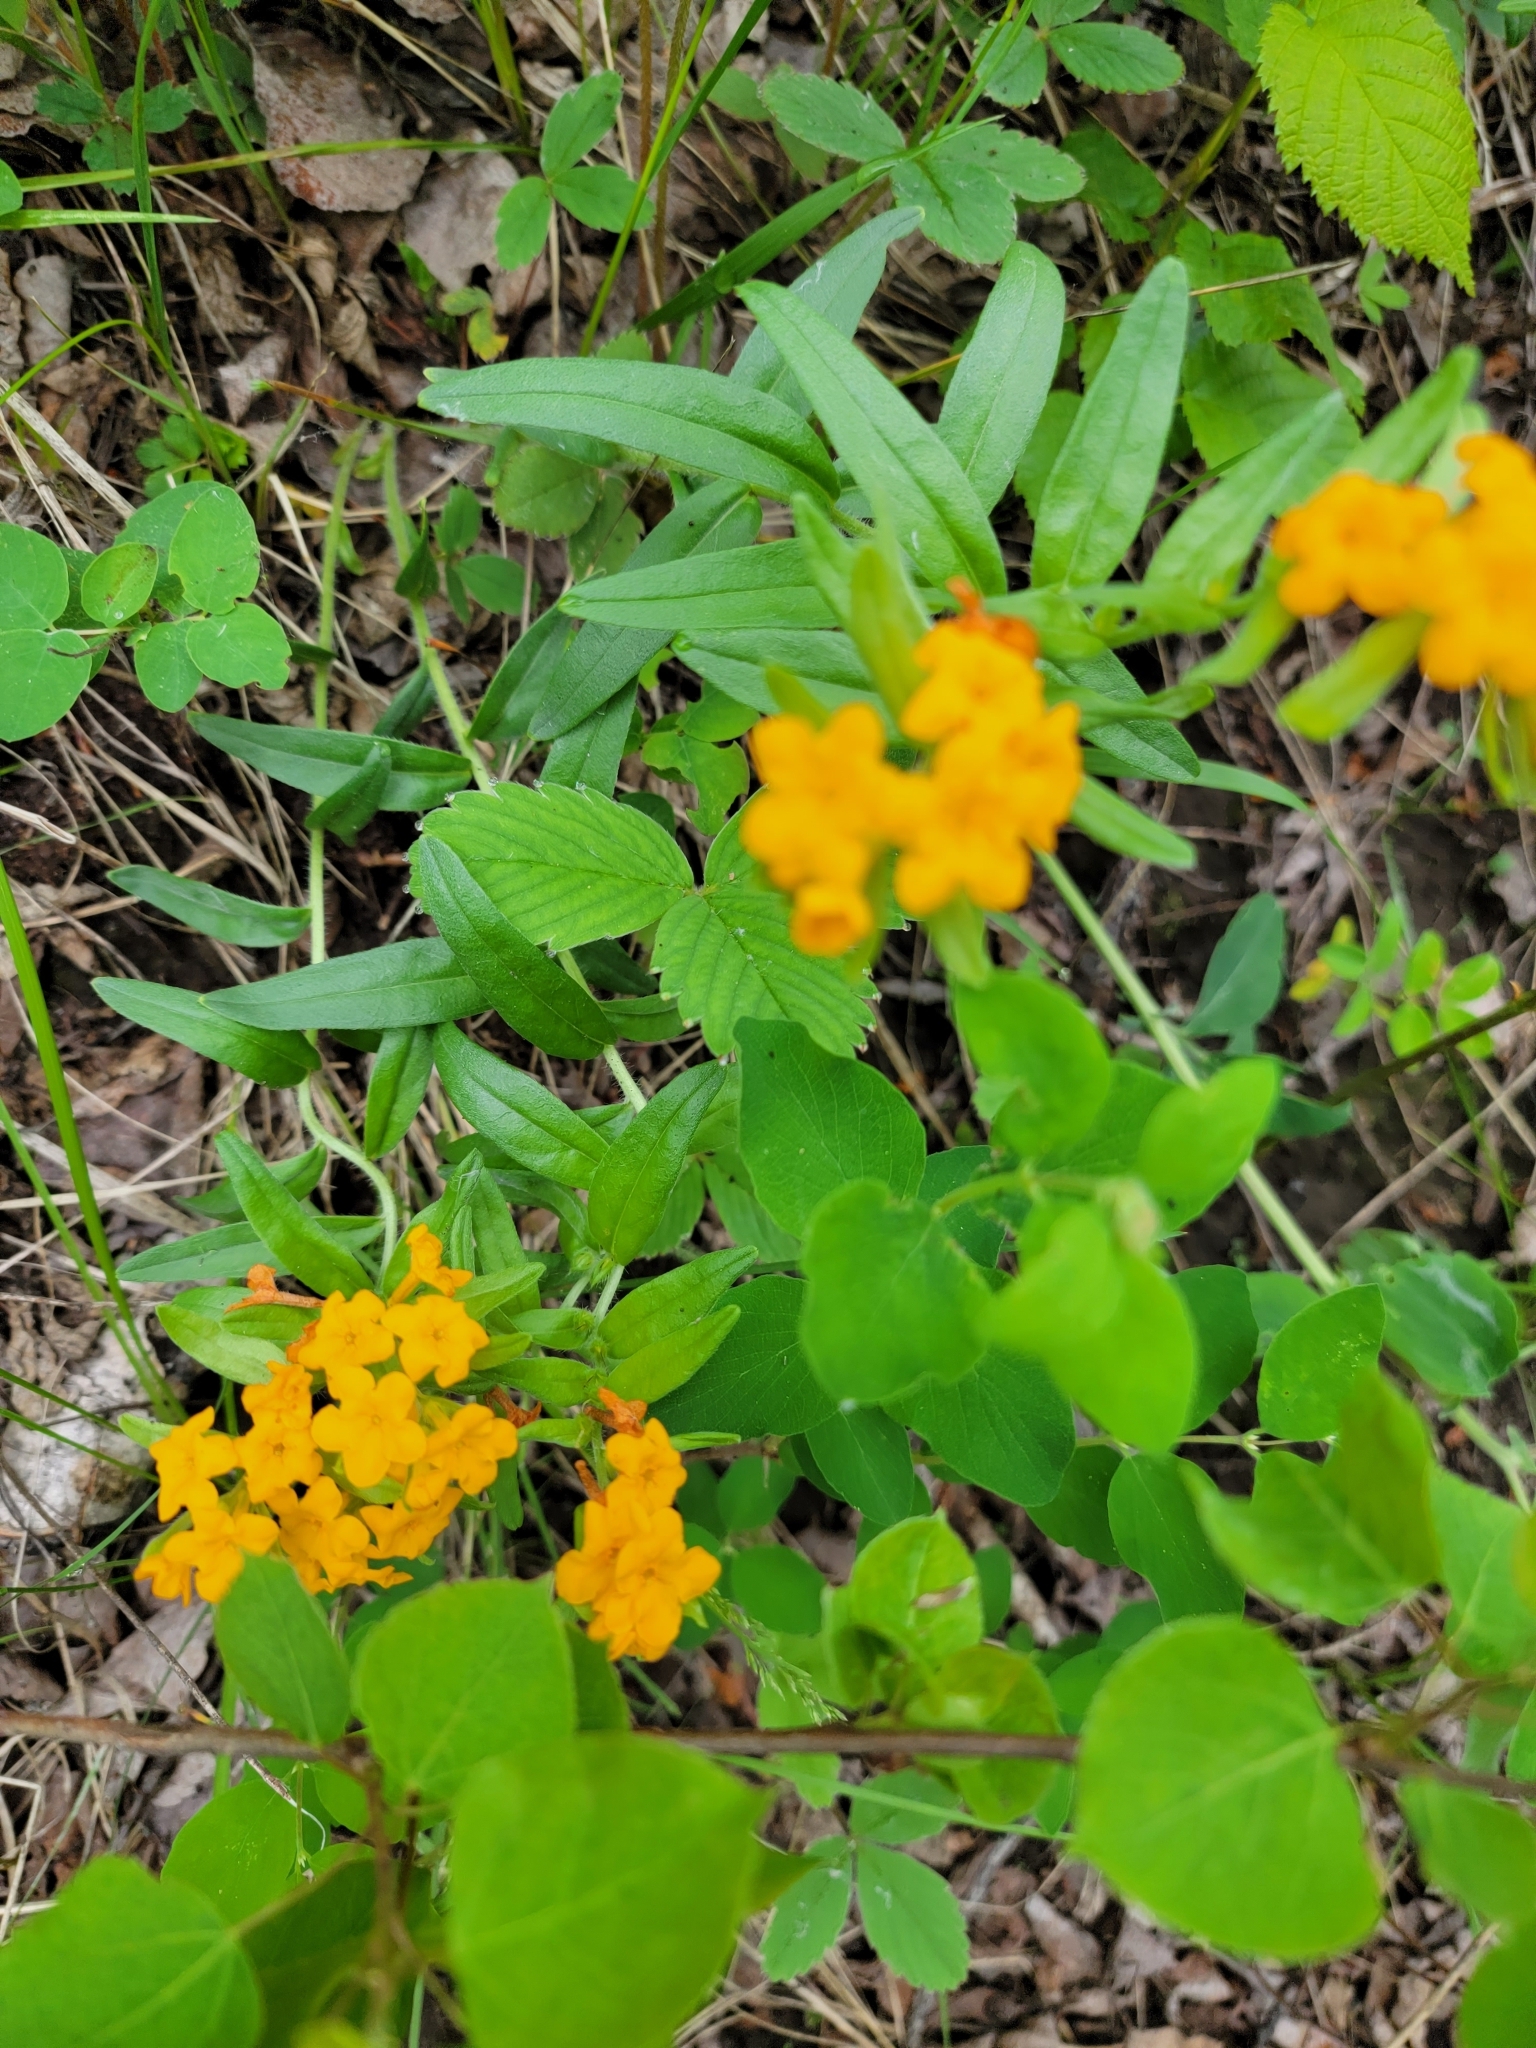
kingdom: Plantae
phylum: Tracheophyta
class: Magnoliopsida
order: Boraginales
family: Boraginaceae
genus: Lithospermum
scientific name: Lithospermum canescens
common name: Hoary puccoon
